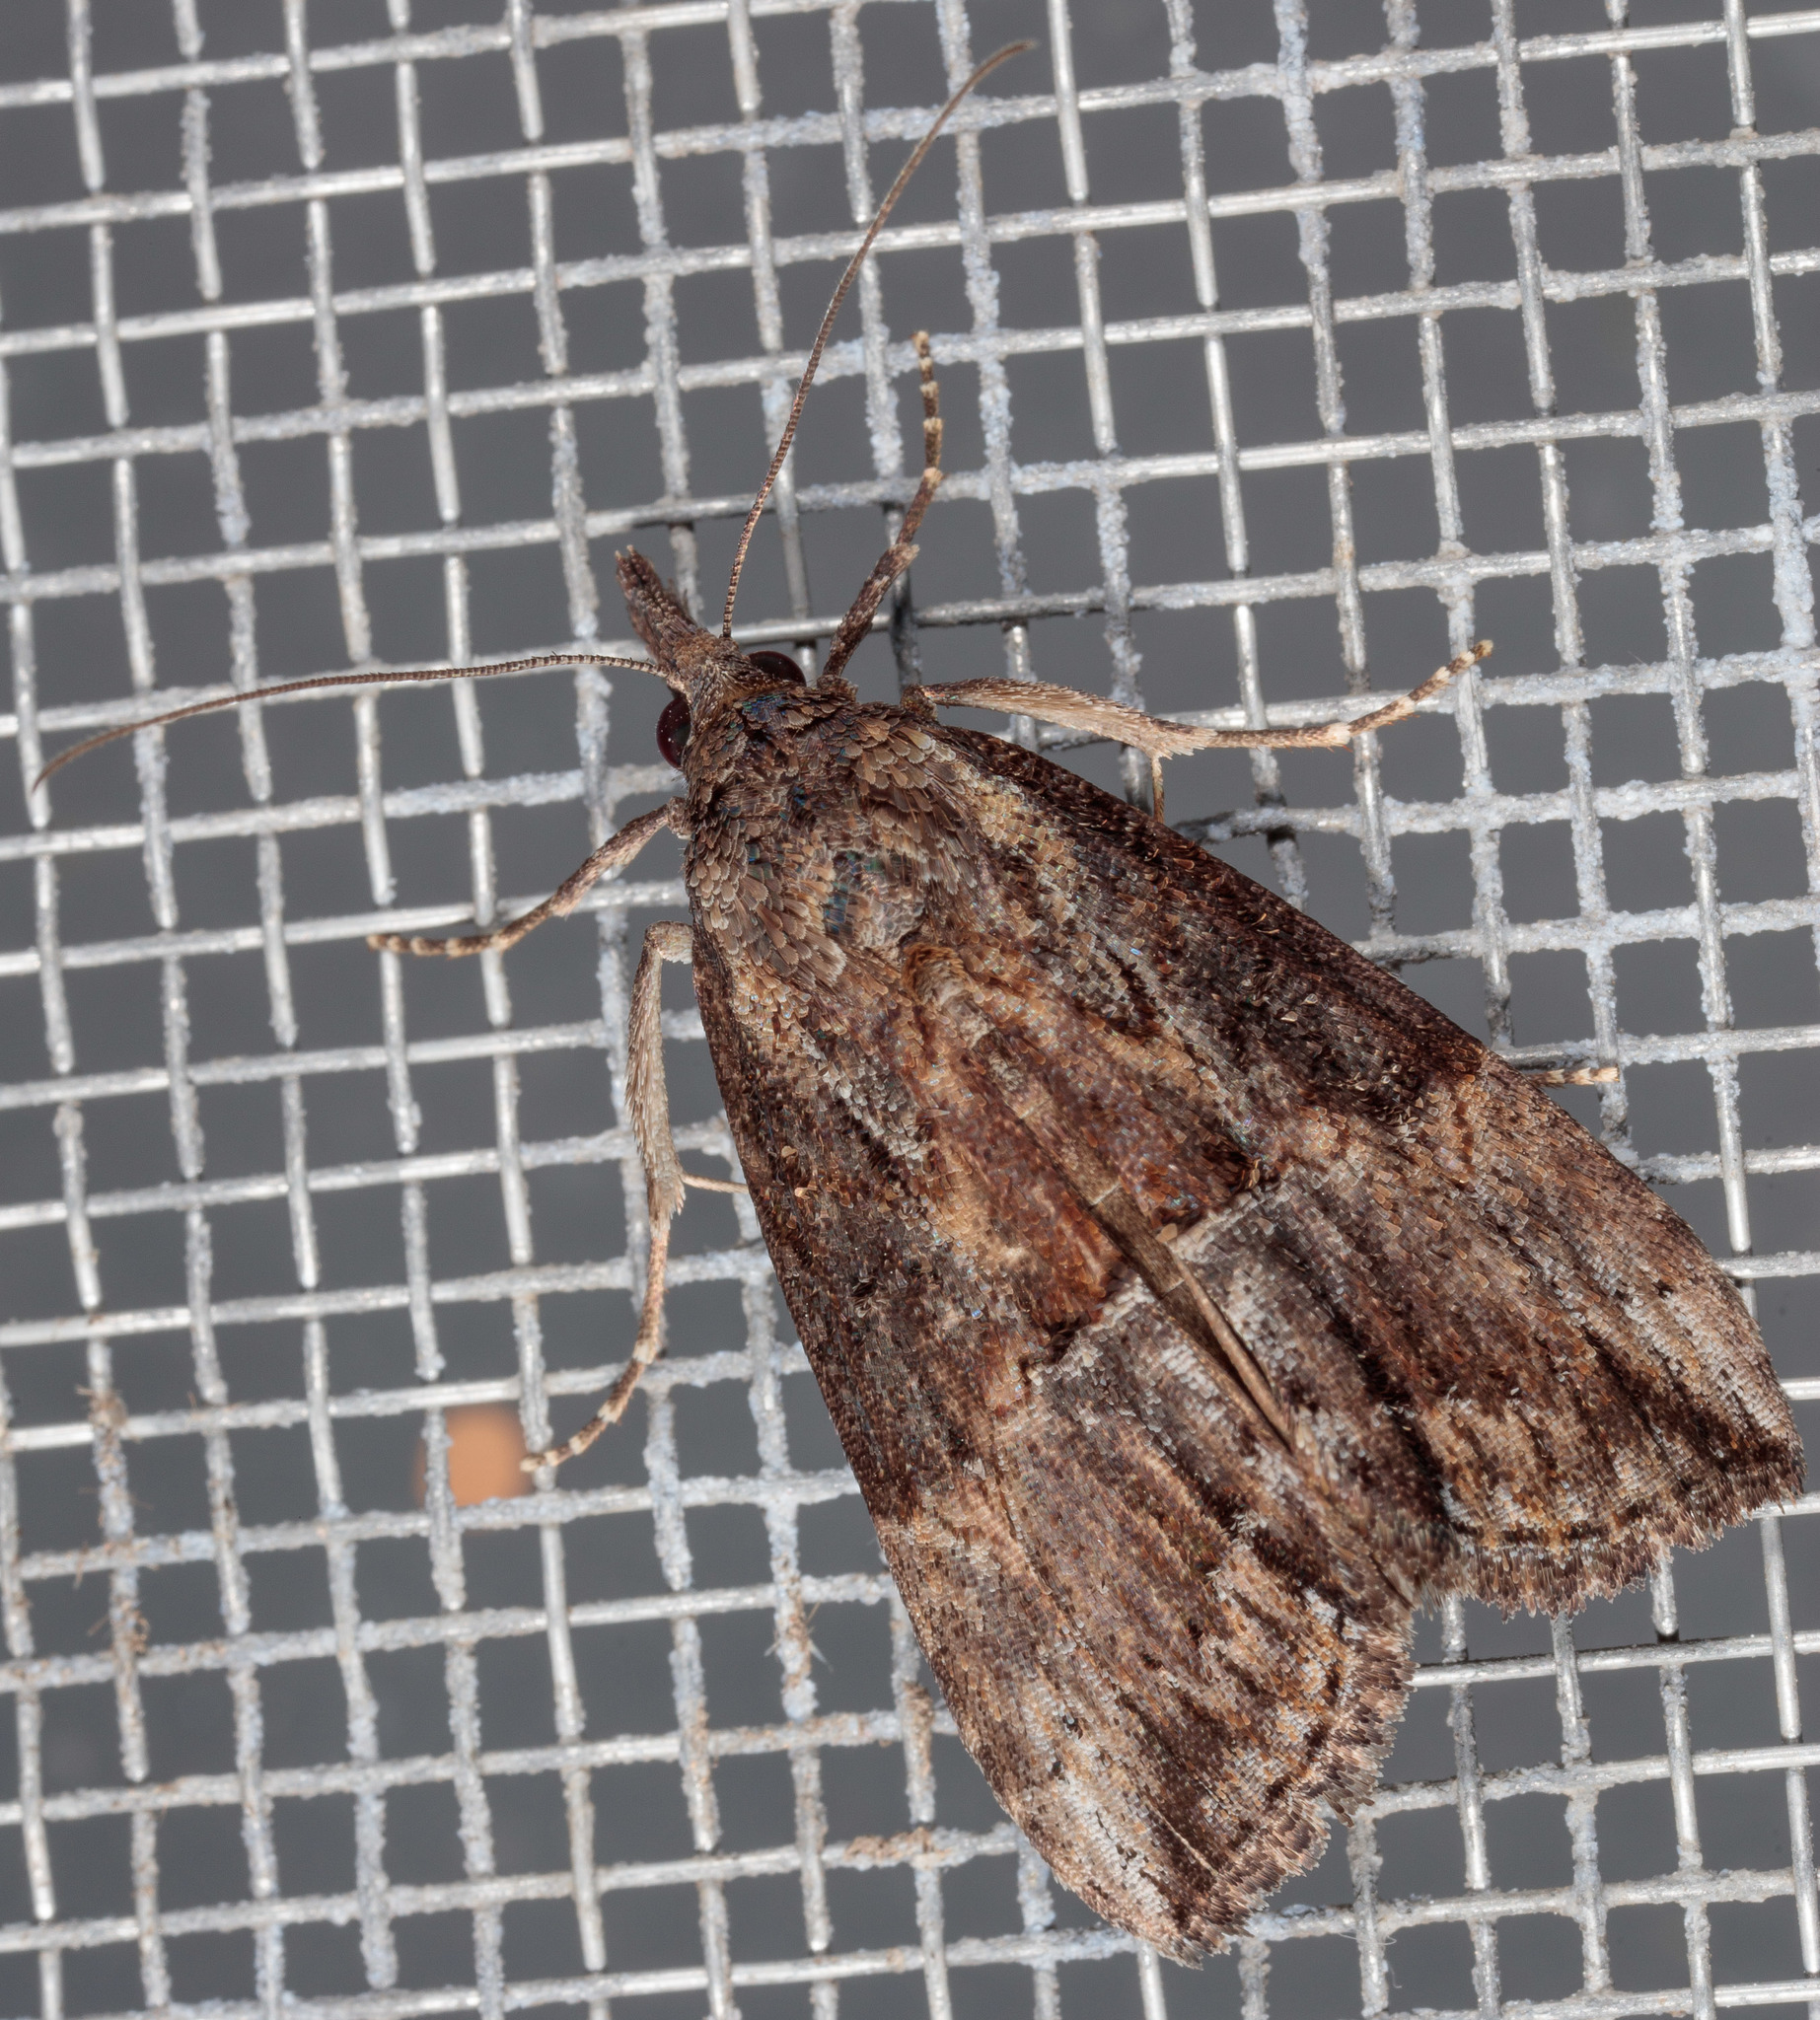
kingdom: Animalia
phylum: Arthropoda
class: Insecta
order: Lepidoptera
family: Erebidae
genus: Hypena
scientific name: Hypena scabra
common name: Green cloverworm
